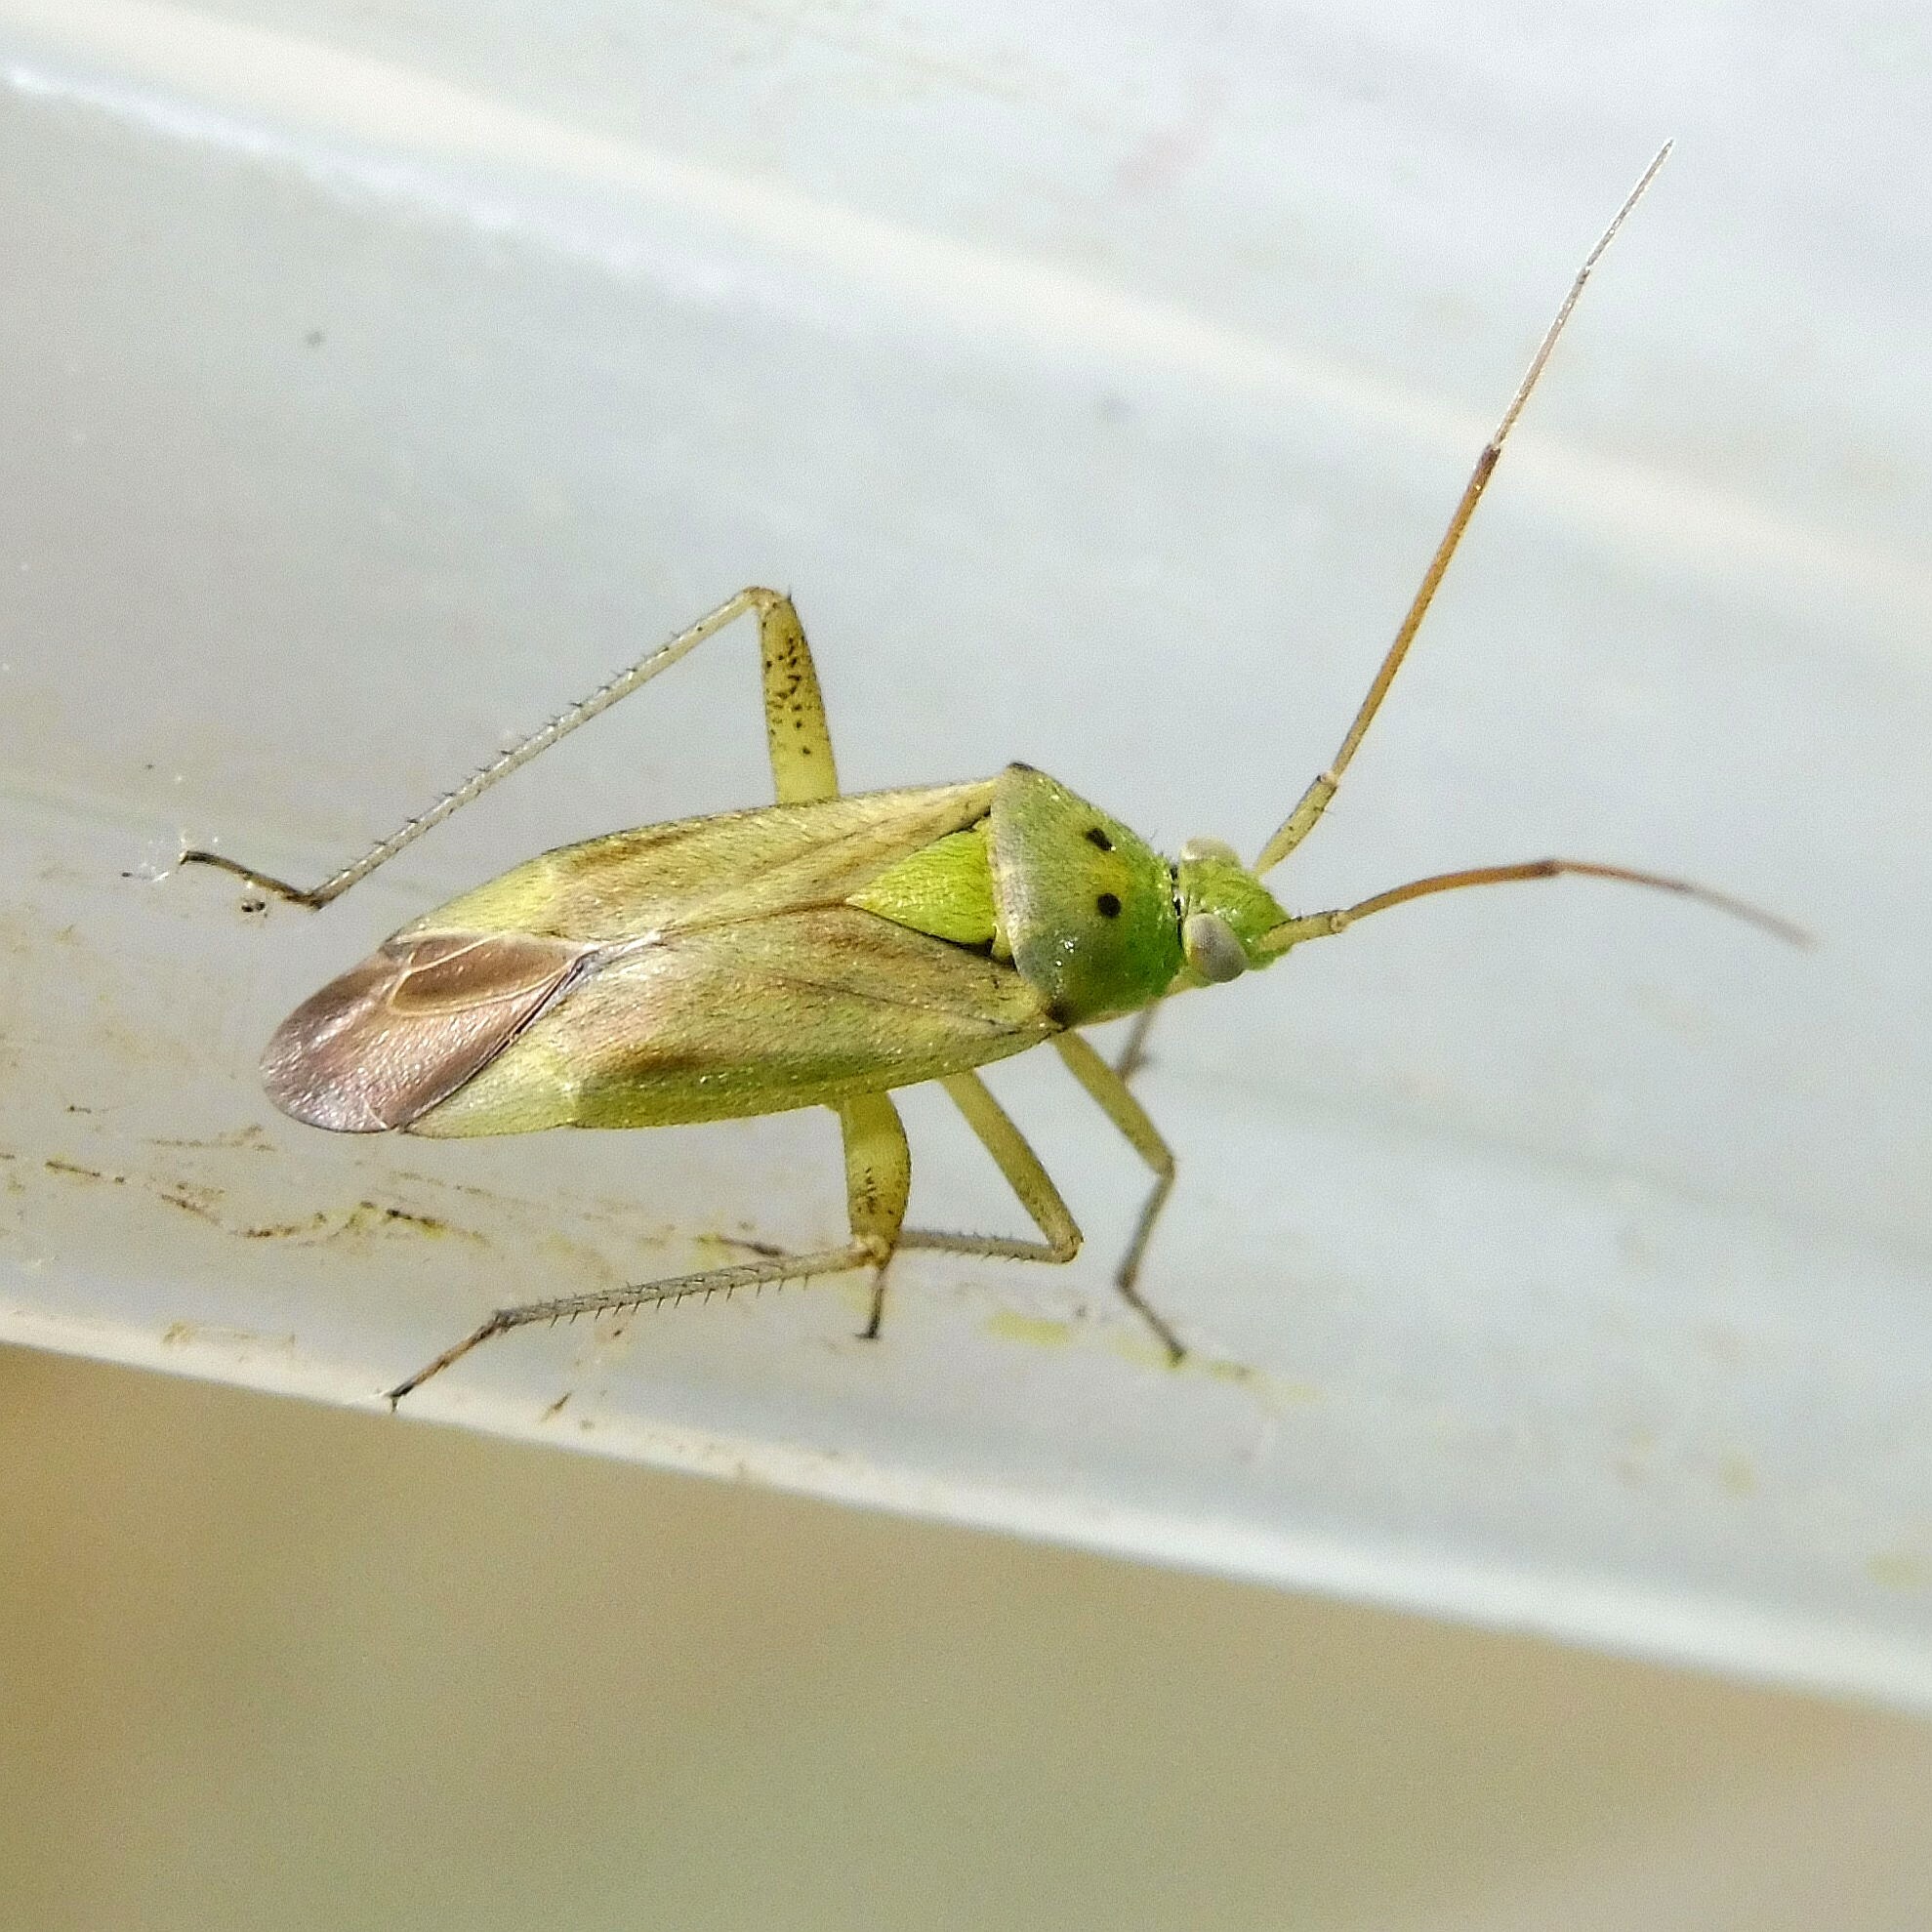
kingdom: Animalia
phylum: Arthropoda
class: Insecta
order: Hemiptera
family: Miridae
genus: Closterotomus
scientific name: Closterotomus norvegicus
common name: Plant bug
